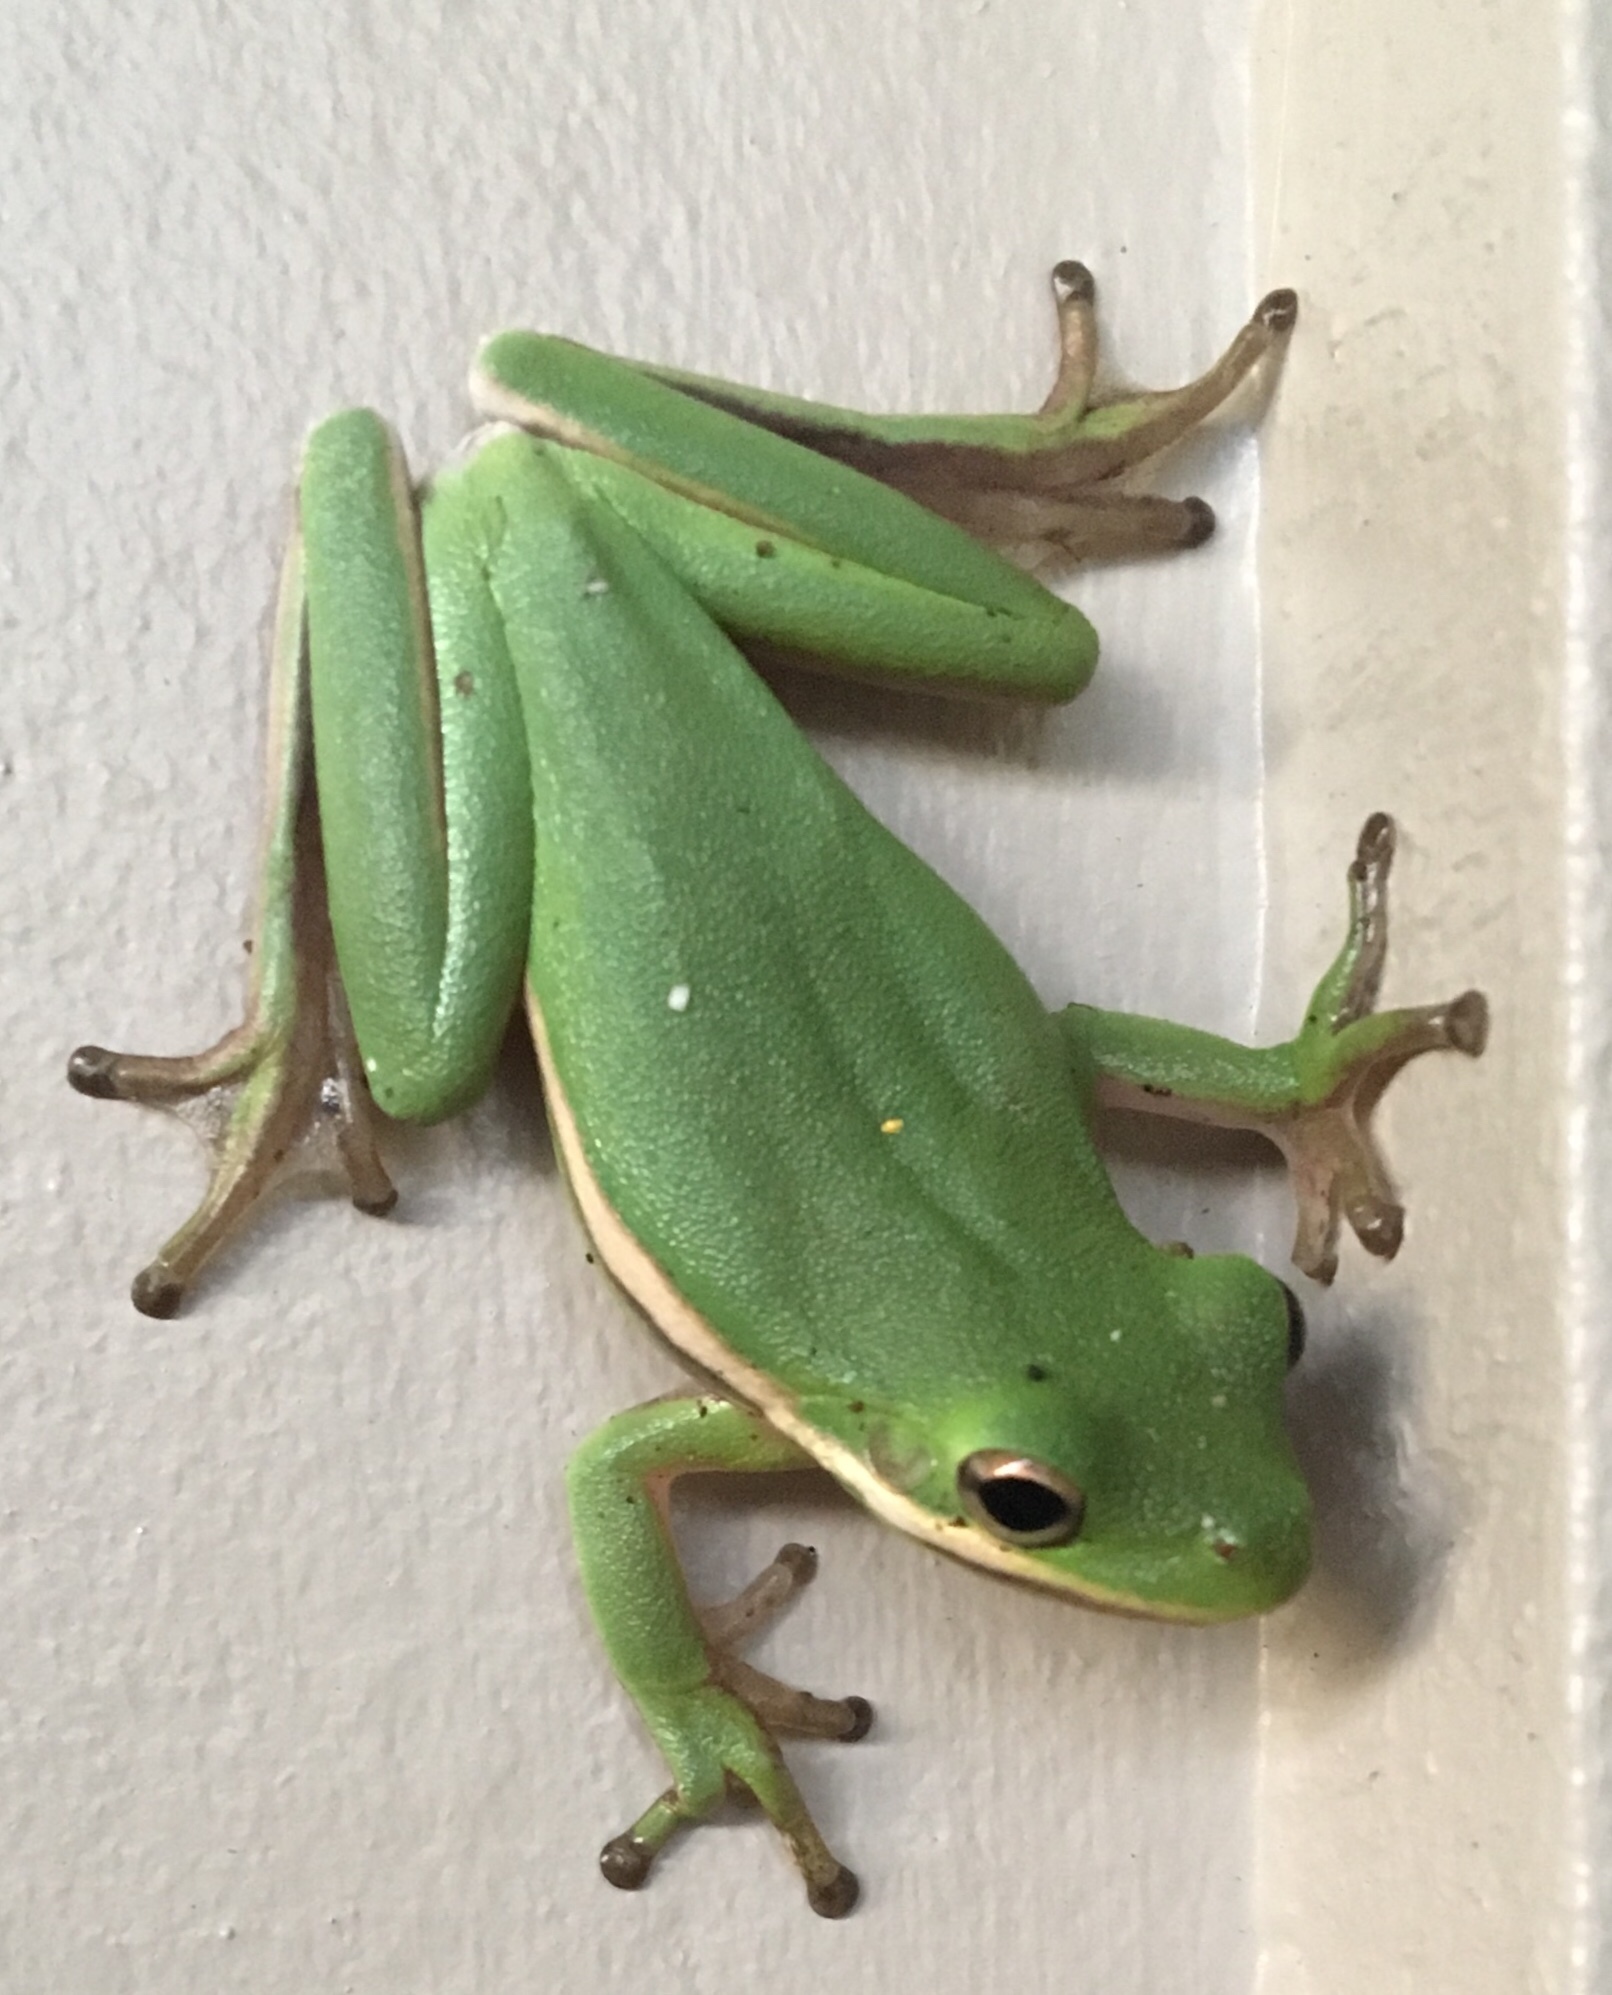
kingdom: Animalia
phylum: Chordata
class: Amphibia
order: Anura
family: Hylidae
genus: Dryophytes
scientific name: Dryophytes cinereus
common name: Green treefrog
